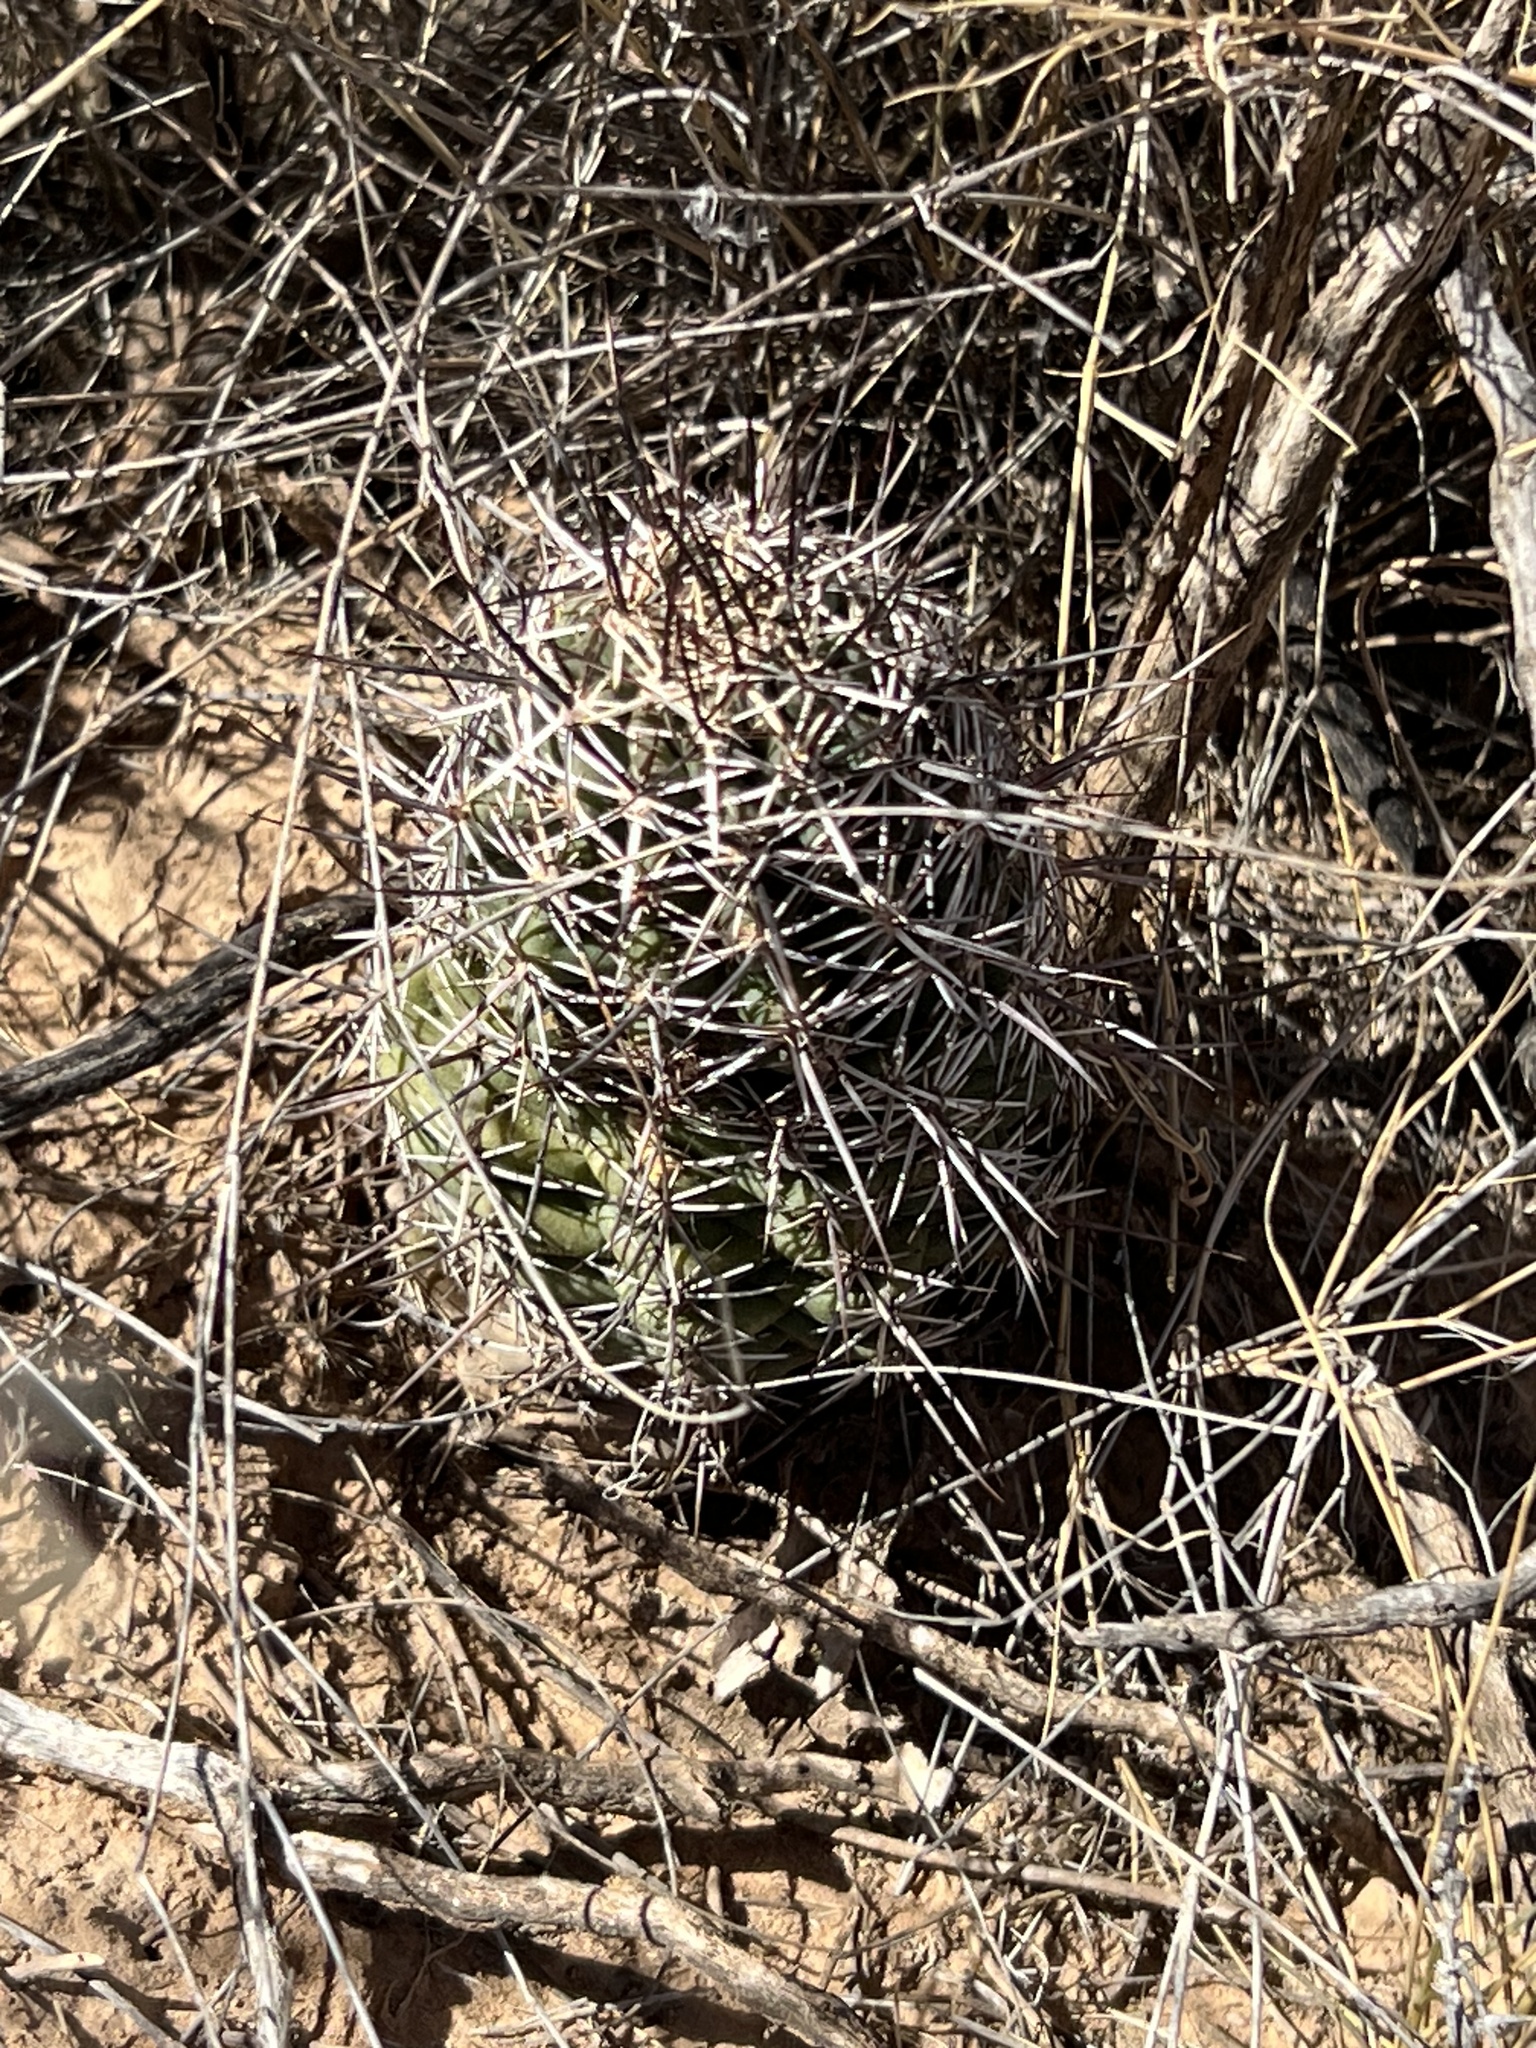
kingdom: Plantae
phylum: Tracheophyta
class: Magnoliopsida
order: Caryophyllales
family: Cactaceae
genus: Echinocereus
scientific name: Echinocereus fendleri
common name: Fendler's hedgehog cactus
